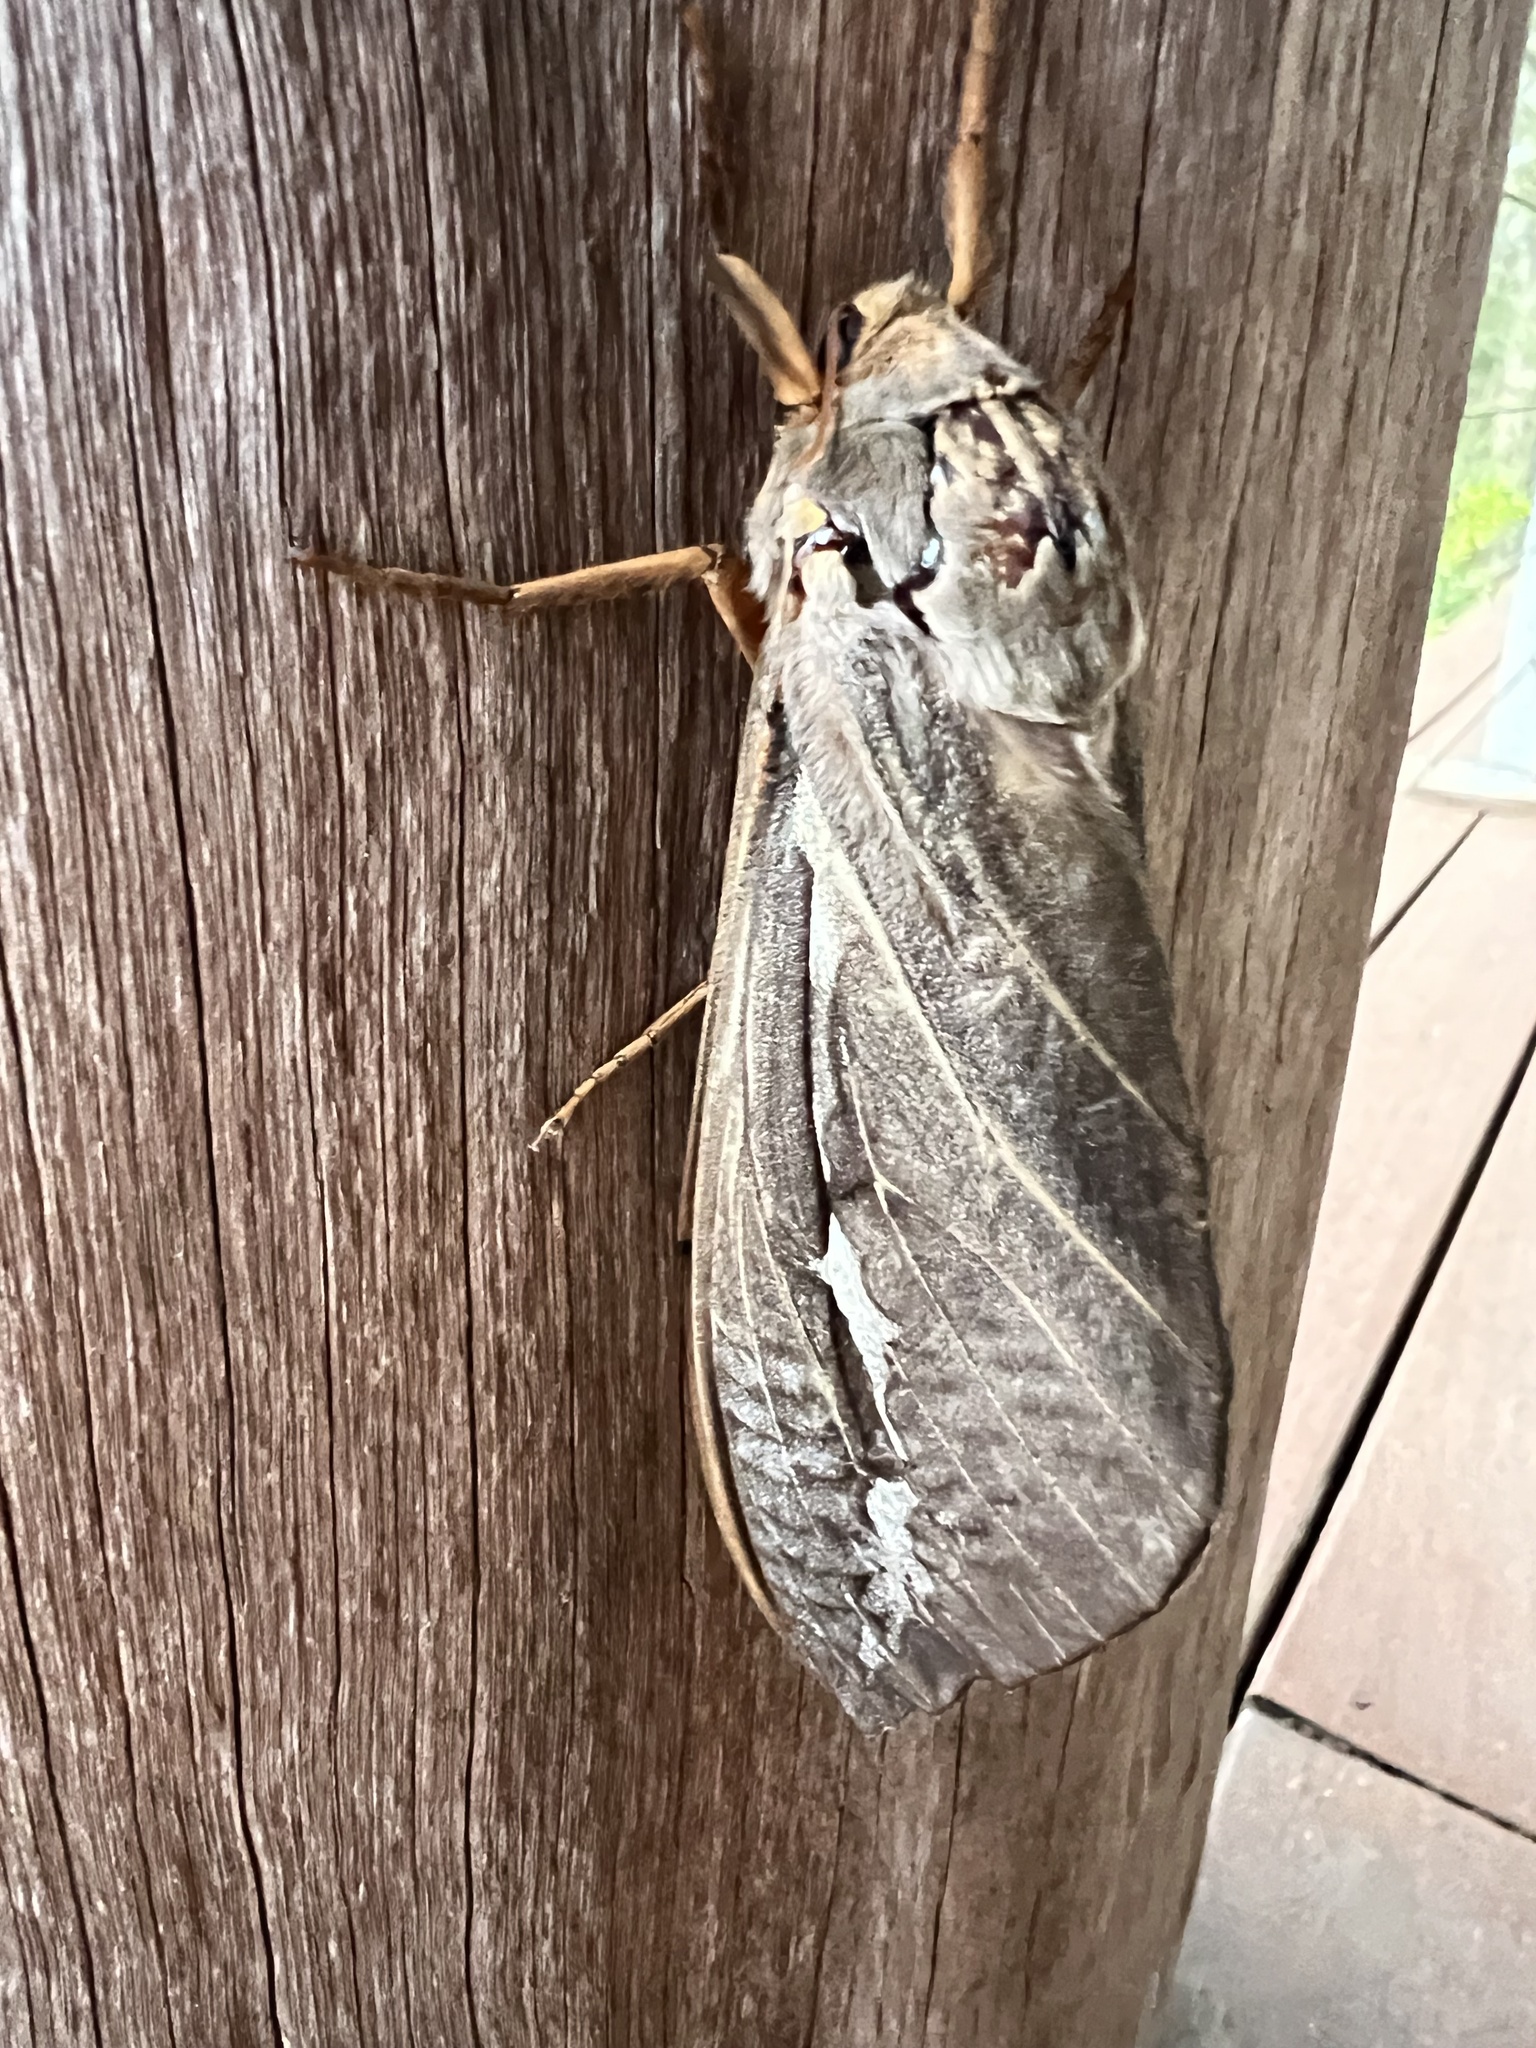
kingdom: Animalia
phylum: Arthropoda
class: Insecta
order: Lepidoptera
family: Hepialidae
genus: Abantiades
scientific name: Abantiades barcas
